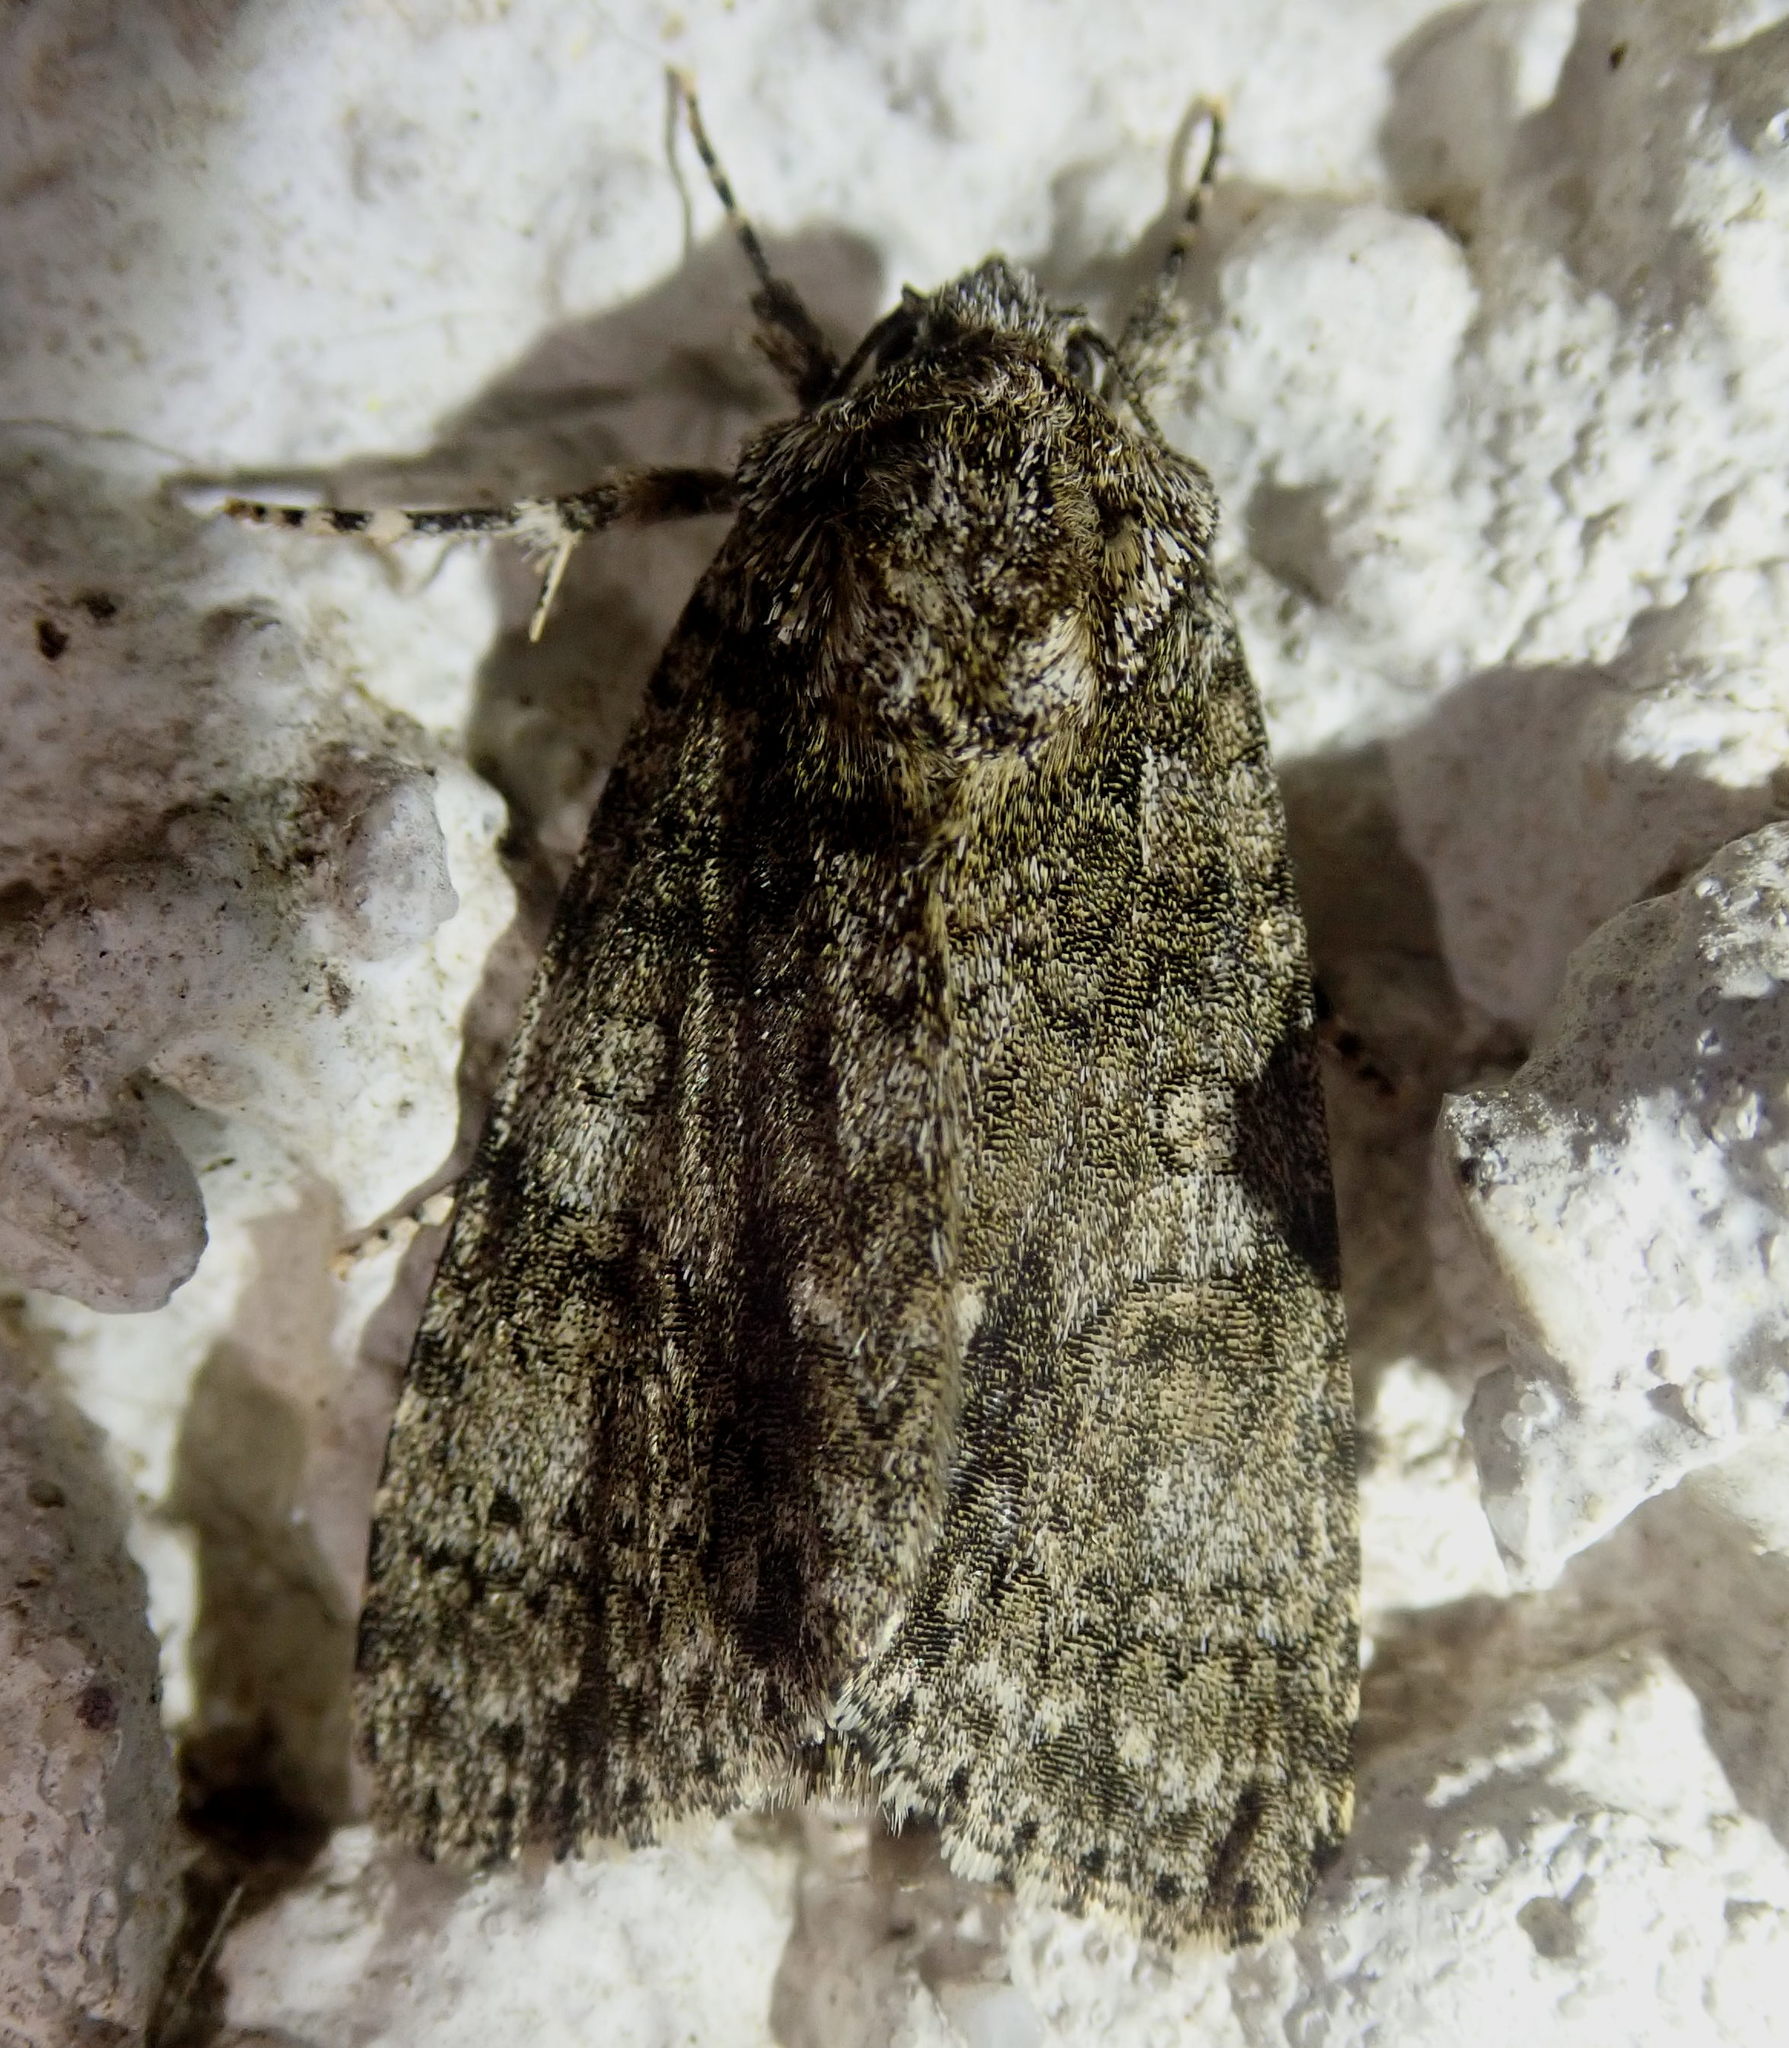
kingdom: Animalia
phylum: Arthropoda
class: Insecta
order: Lepidoptera
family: Noctuidae
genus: Acronicta
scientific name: Acronicta rumicis
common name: Knot grass
